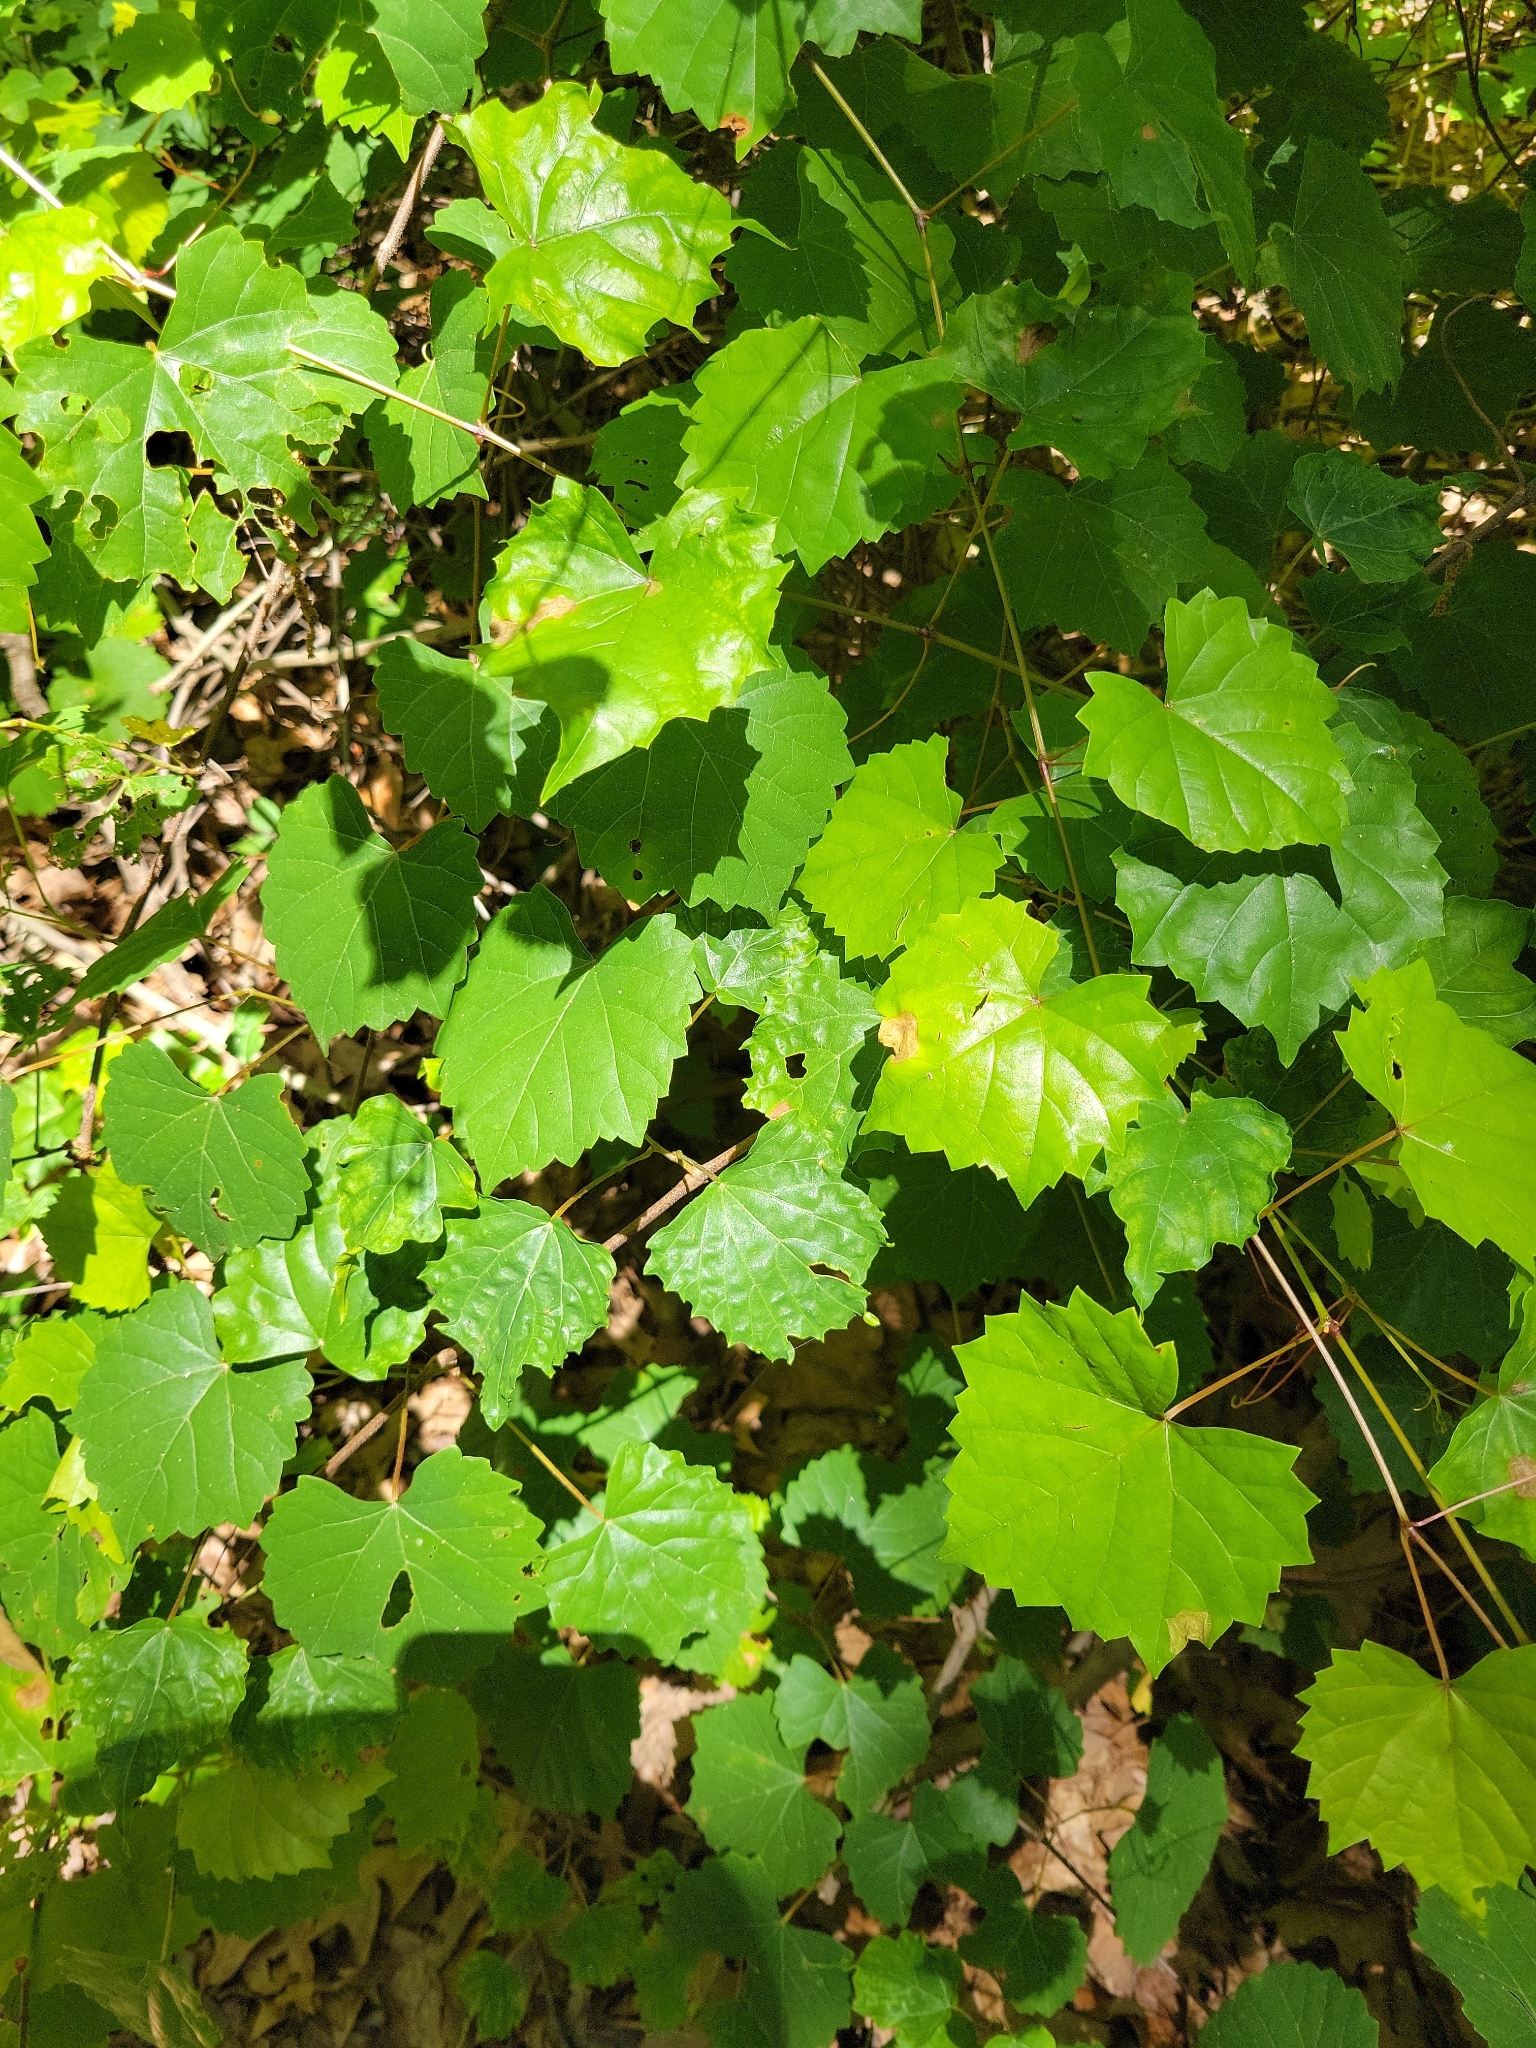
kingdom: Plantae
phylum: Tracheophyta
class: Magnoliopsida
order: Vitales
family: Vitaceae
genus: Vitis
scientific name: Vitis rotundifolia
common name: Muscadine grape
